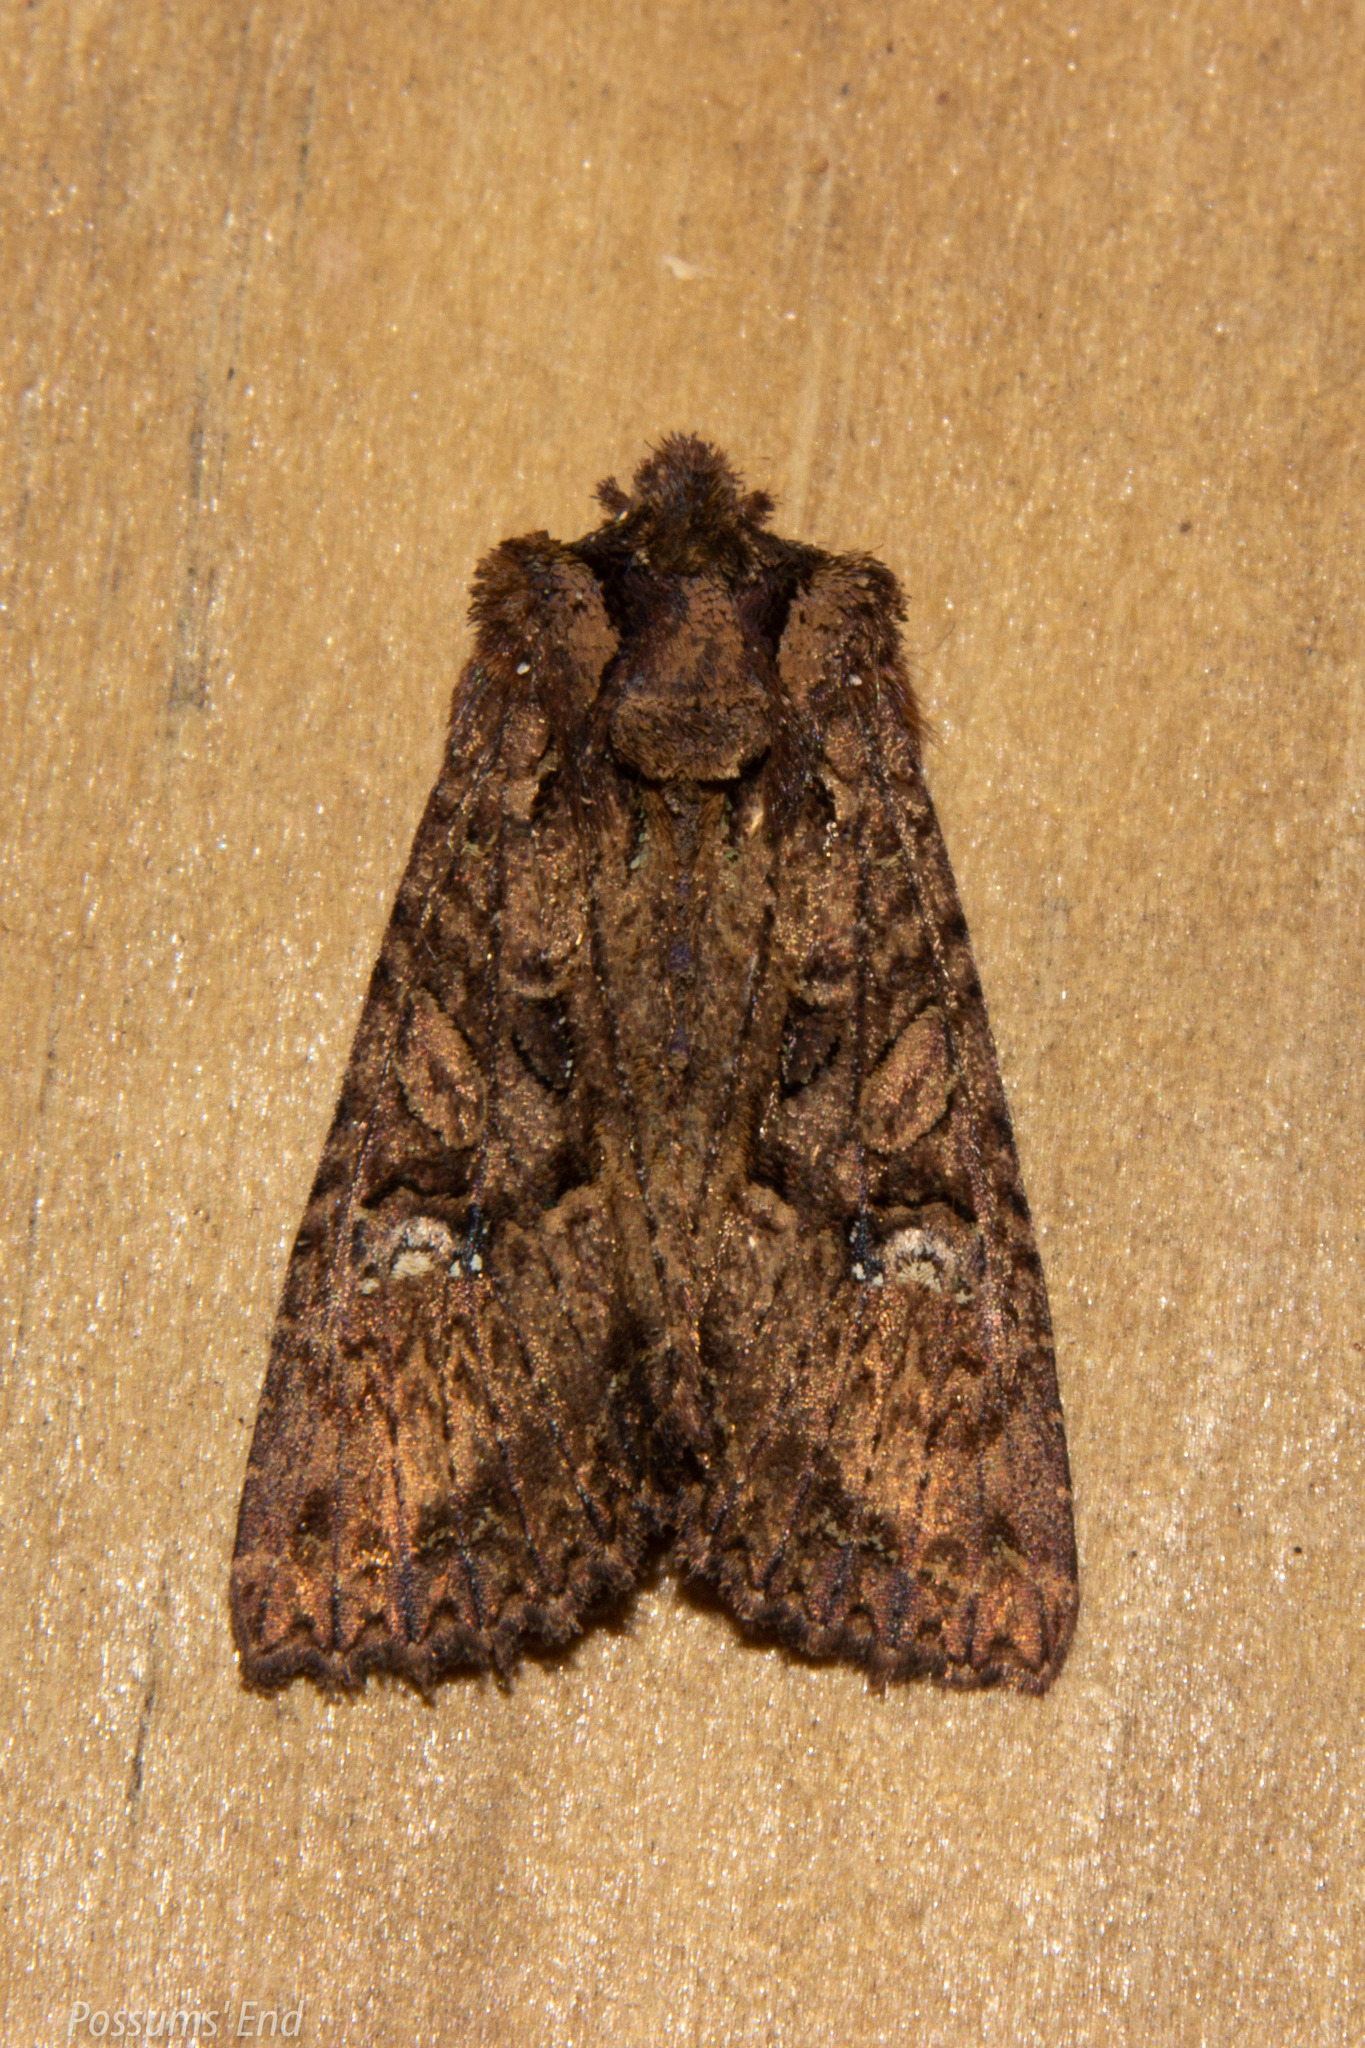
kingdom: Animalia
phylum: Arthropoda
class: Insecta
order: Lepidoptera
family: Noctuidae
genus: Meterana
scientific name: Meterana ochthistis
